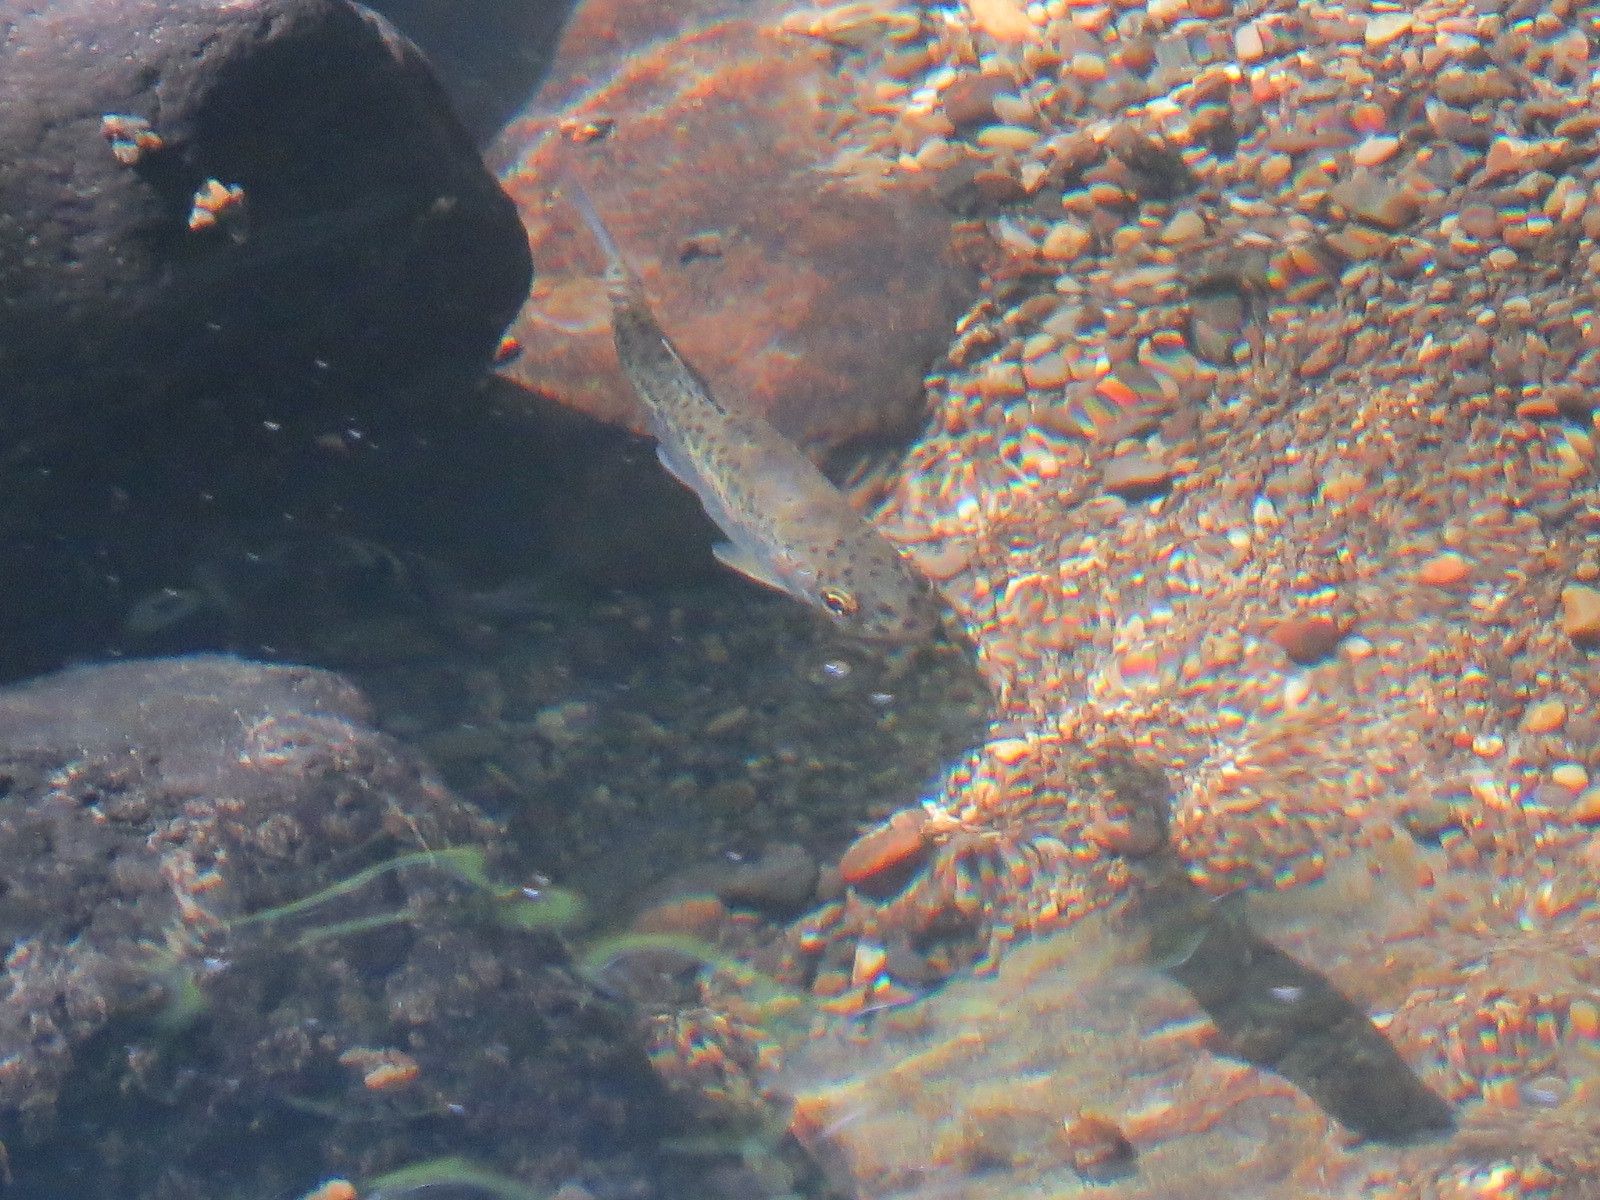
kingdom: Animalia
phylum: Chordata
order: Salmoniformes
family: Salmonidae
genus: Oncorhynchus
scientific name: Oncorhynchus mykiss
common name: Rainbow trout
